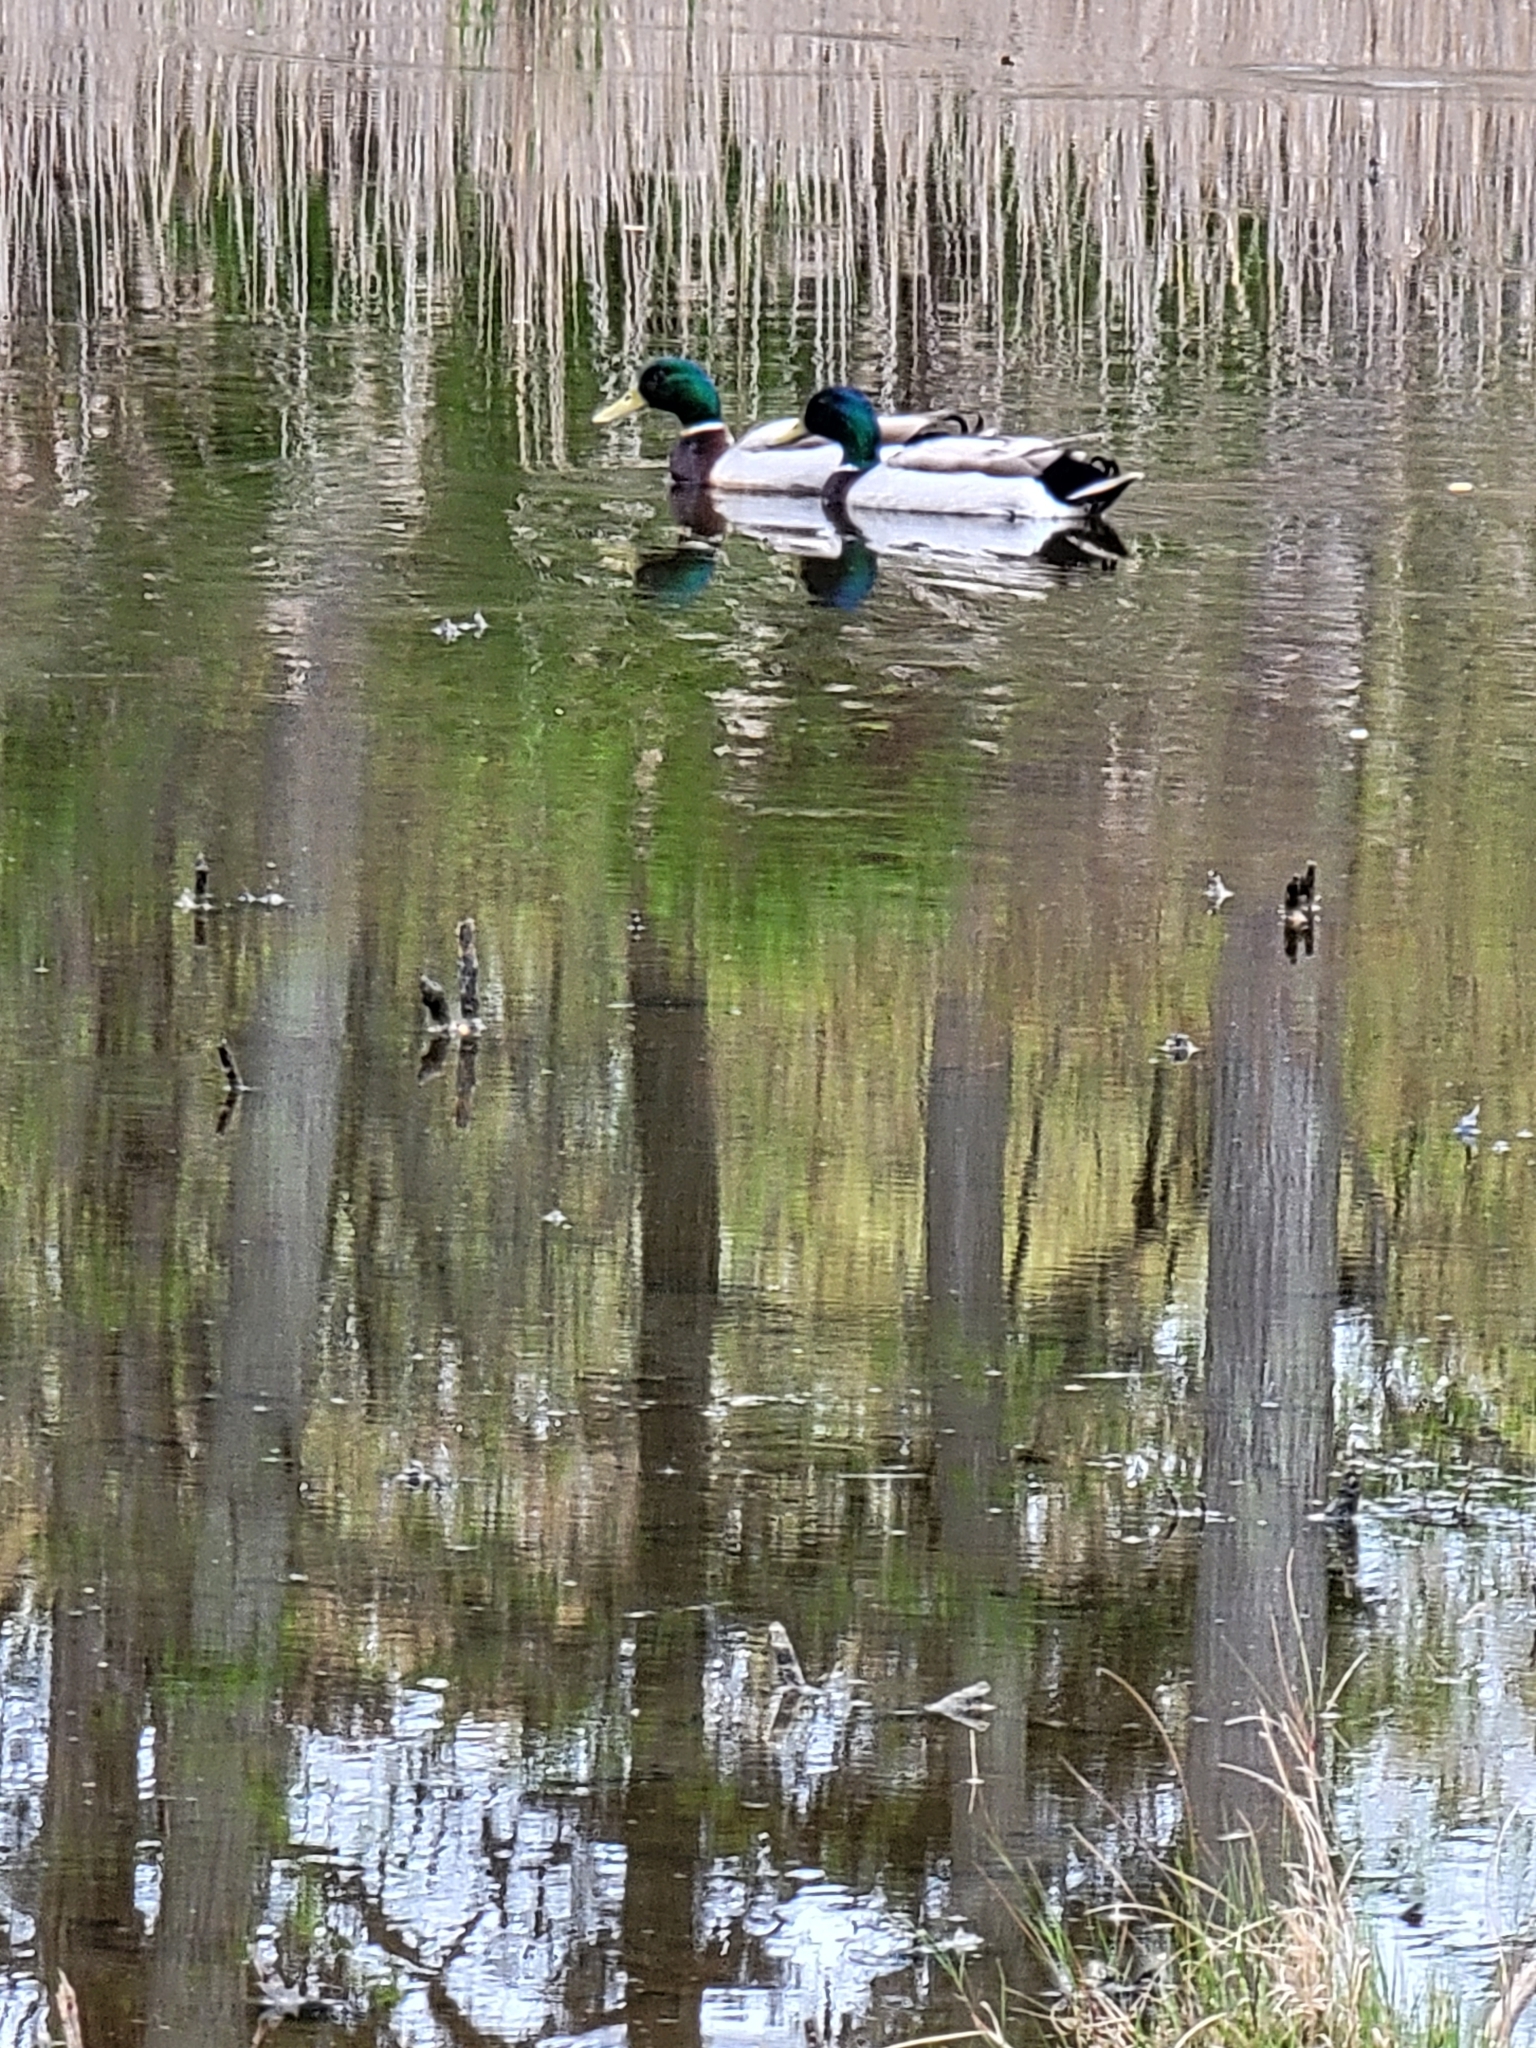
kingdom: Animalia
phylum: Chordata
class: Aves
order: Anseriformes
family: Anatidae
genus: Anas
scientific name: Anas platyrhynchos
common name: Mallard
